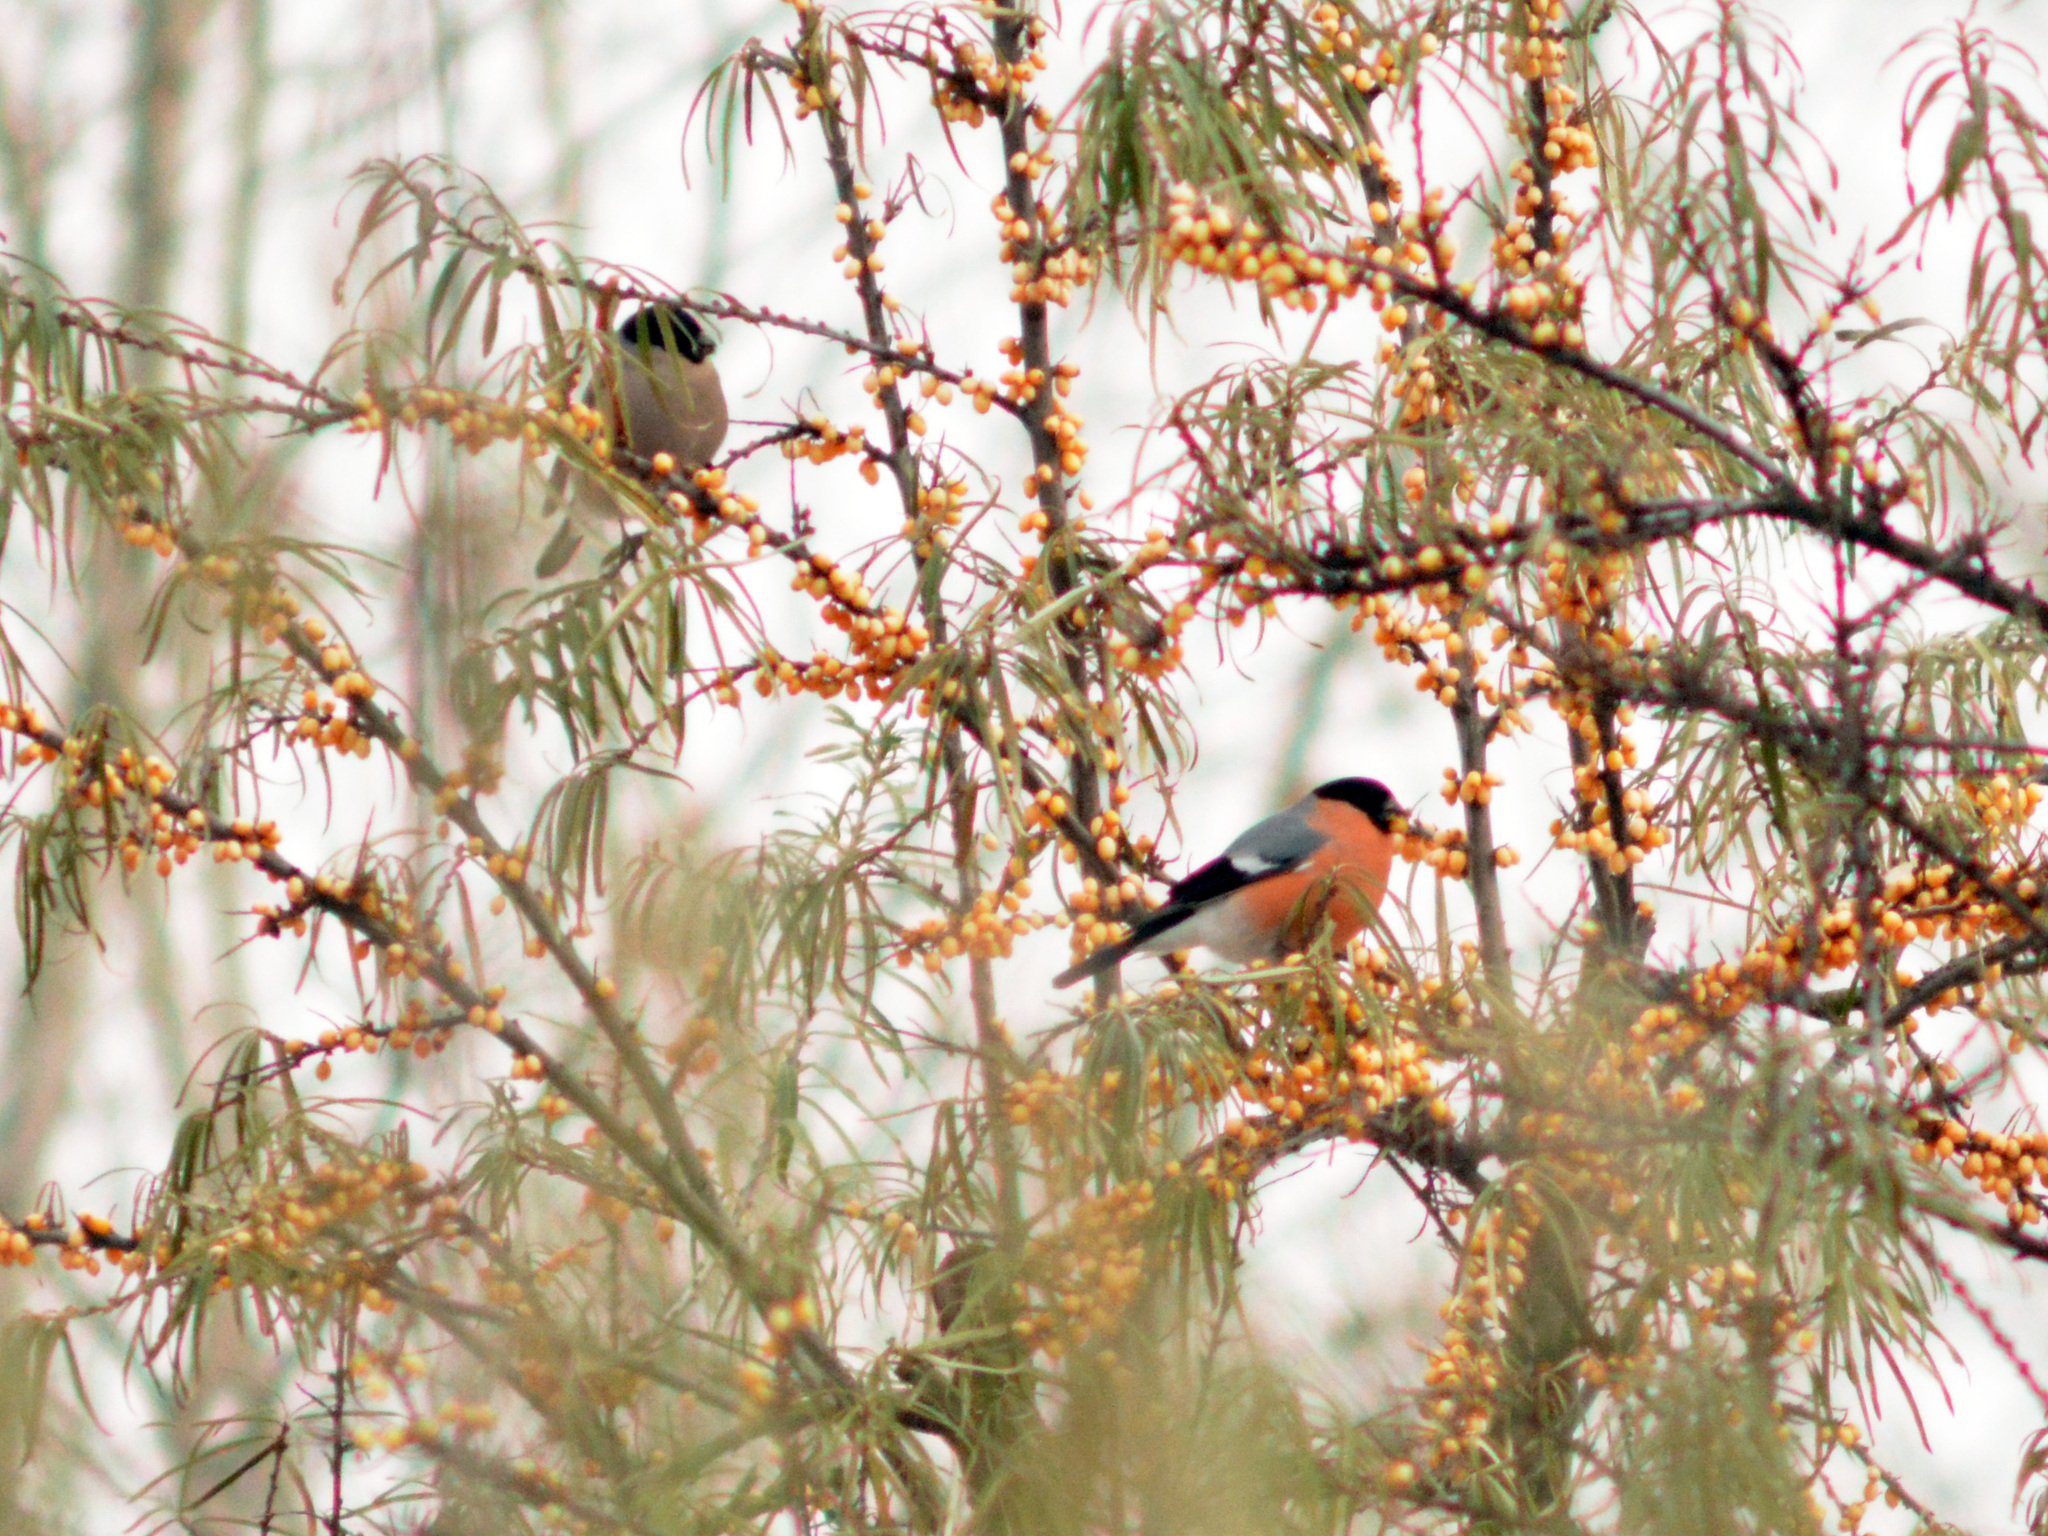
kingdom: Animalia
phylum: Chordata
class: Aves
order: Passeriformes
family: Fringillidae
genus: Pyrrhula
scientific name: Pyrrhula pyrrhula
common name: Eurasian bullfinch
